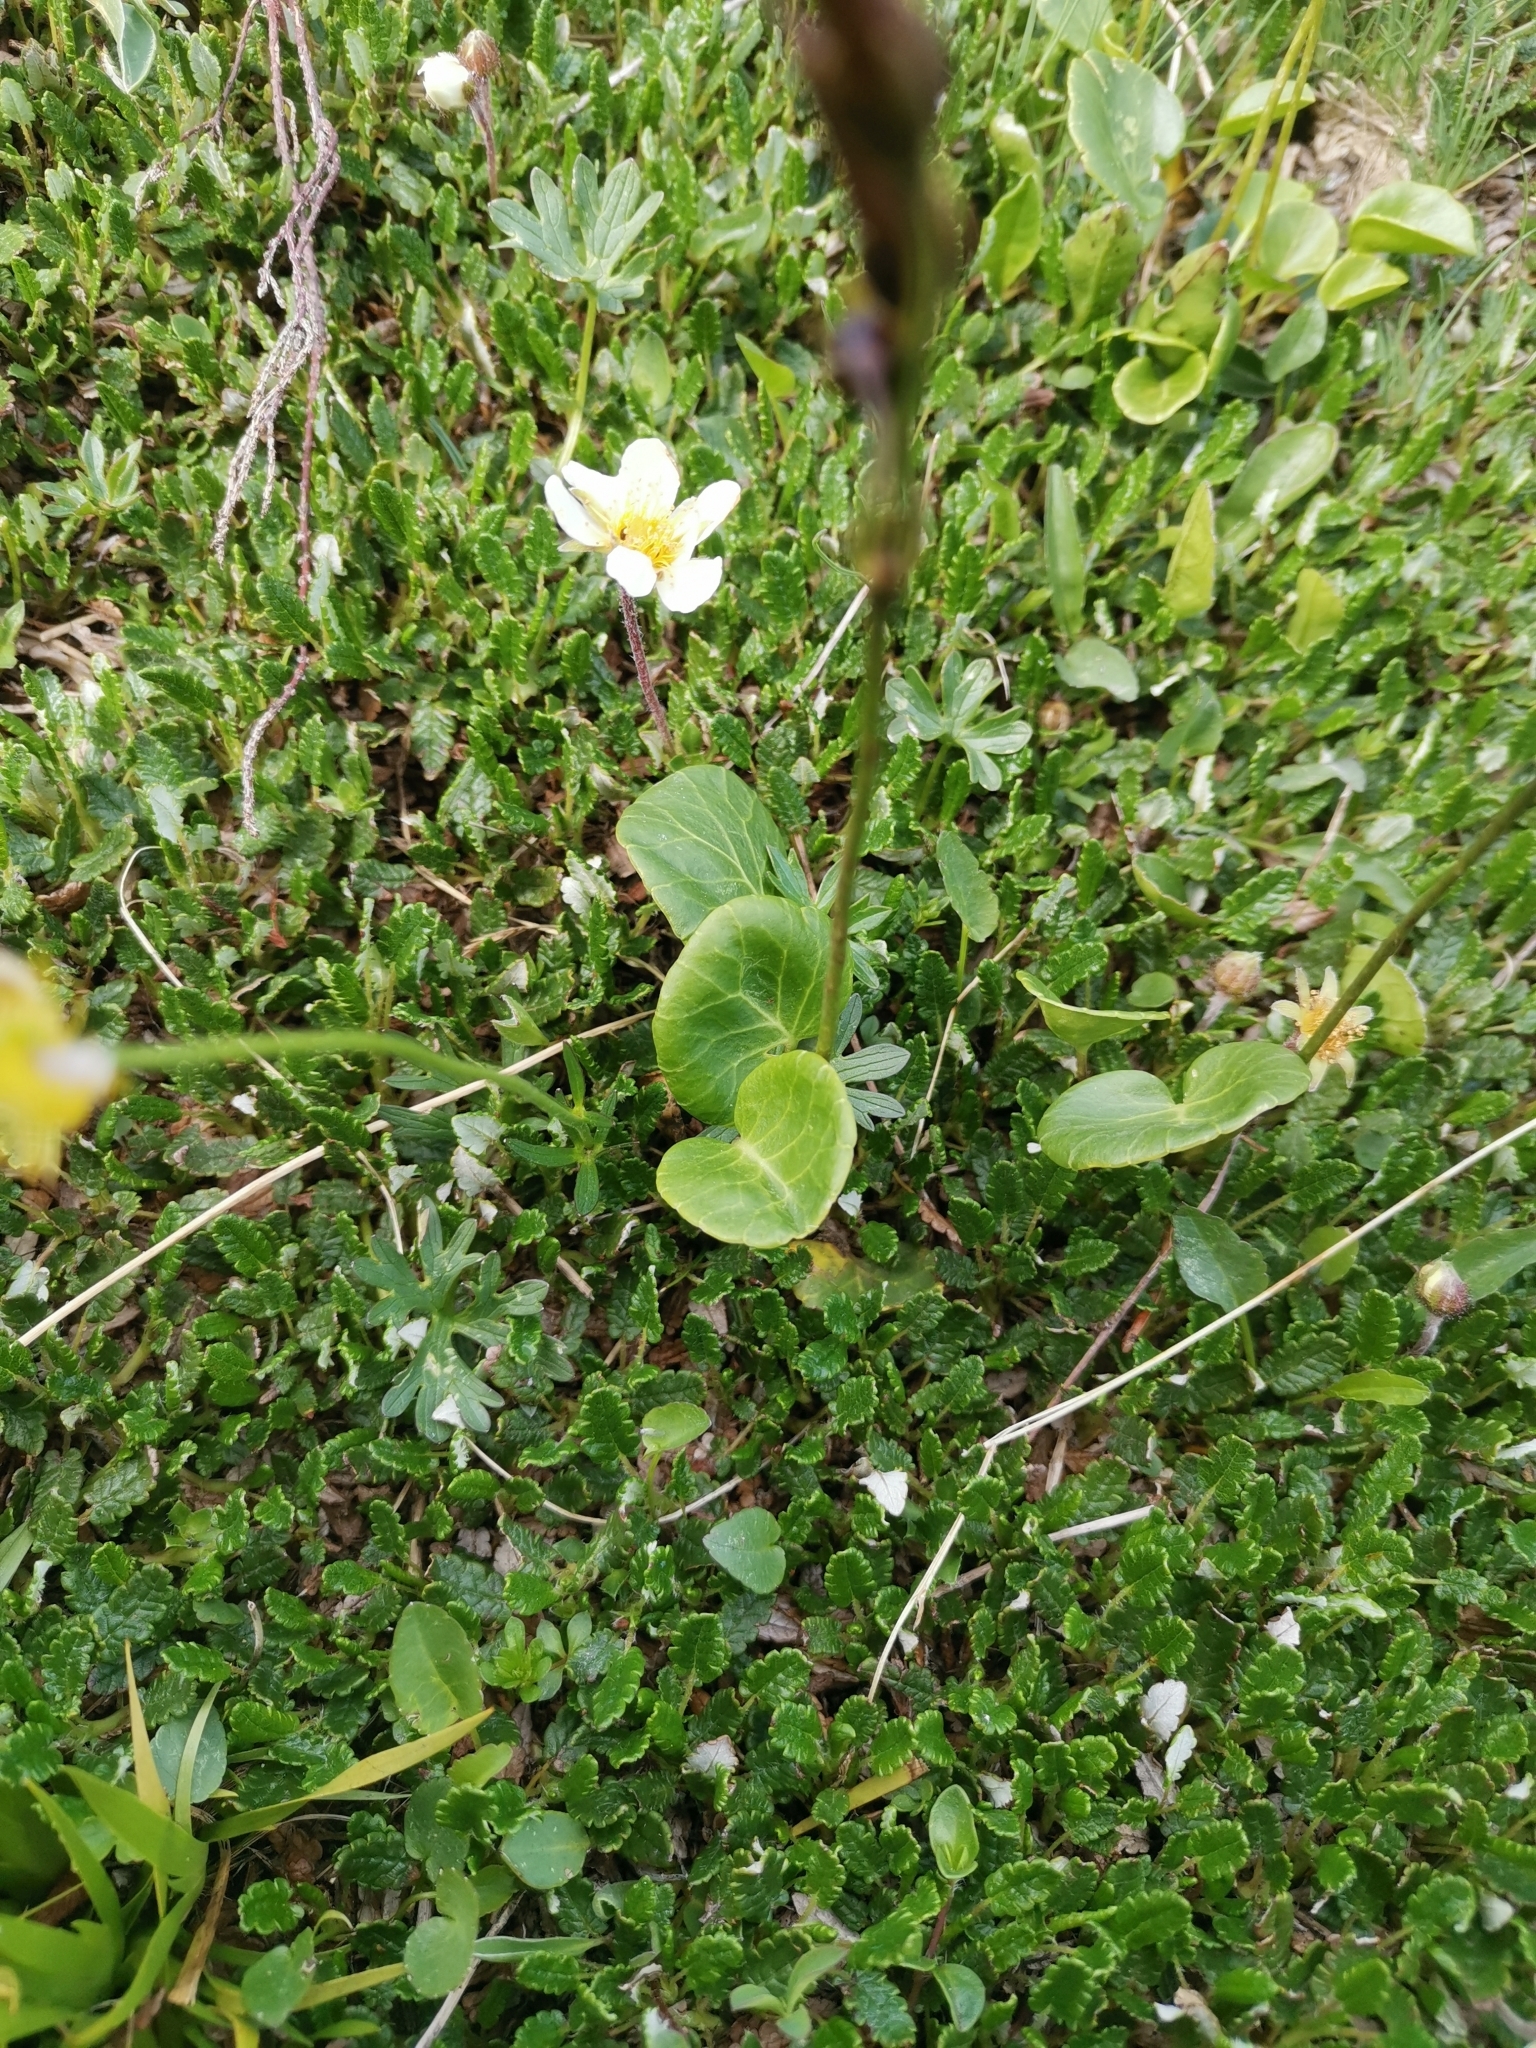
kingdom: Plantae
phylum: Tracheophyta
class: Magnoliopsida
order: Ericales
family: Primulaceae
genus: Soldanella
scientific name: Soldanella alpina
